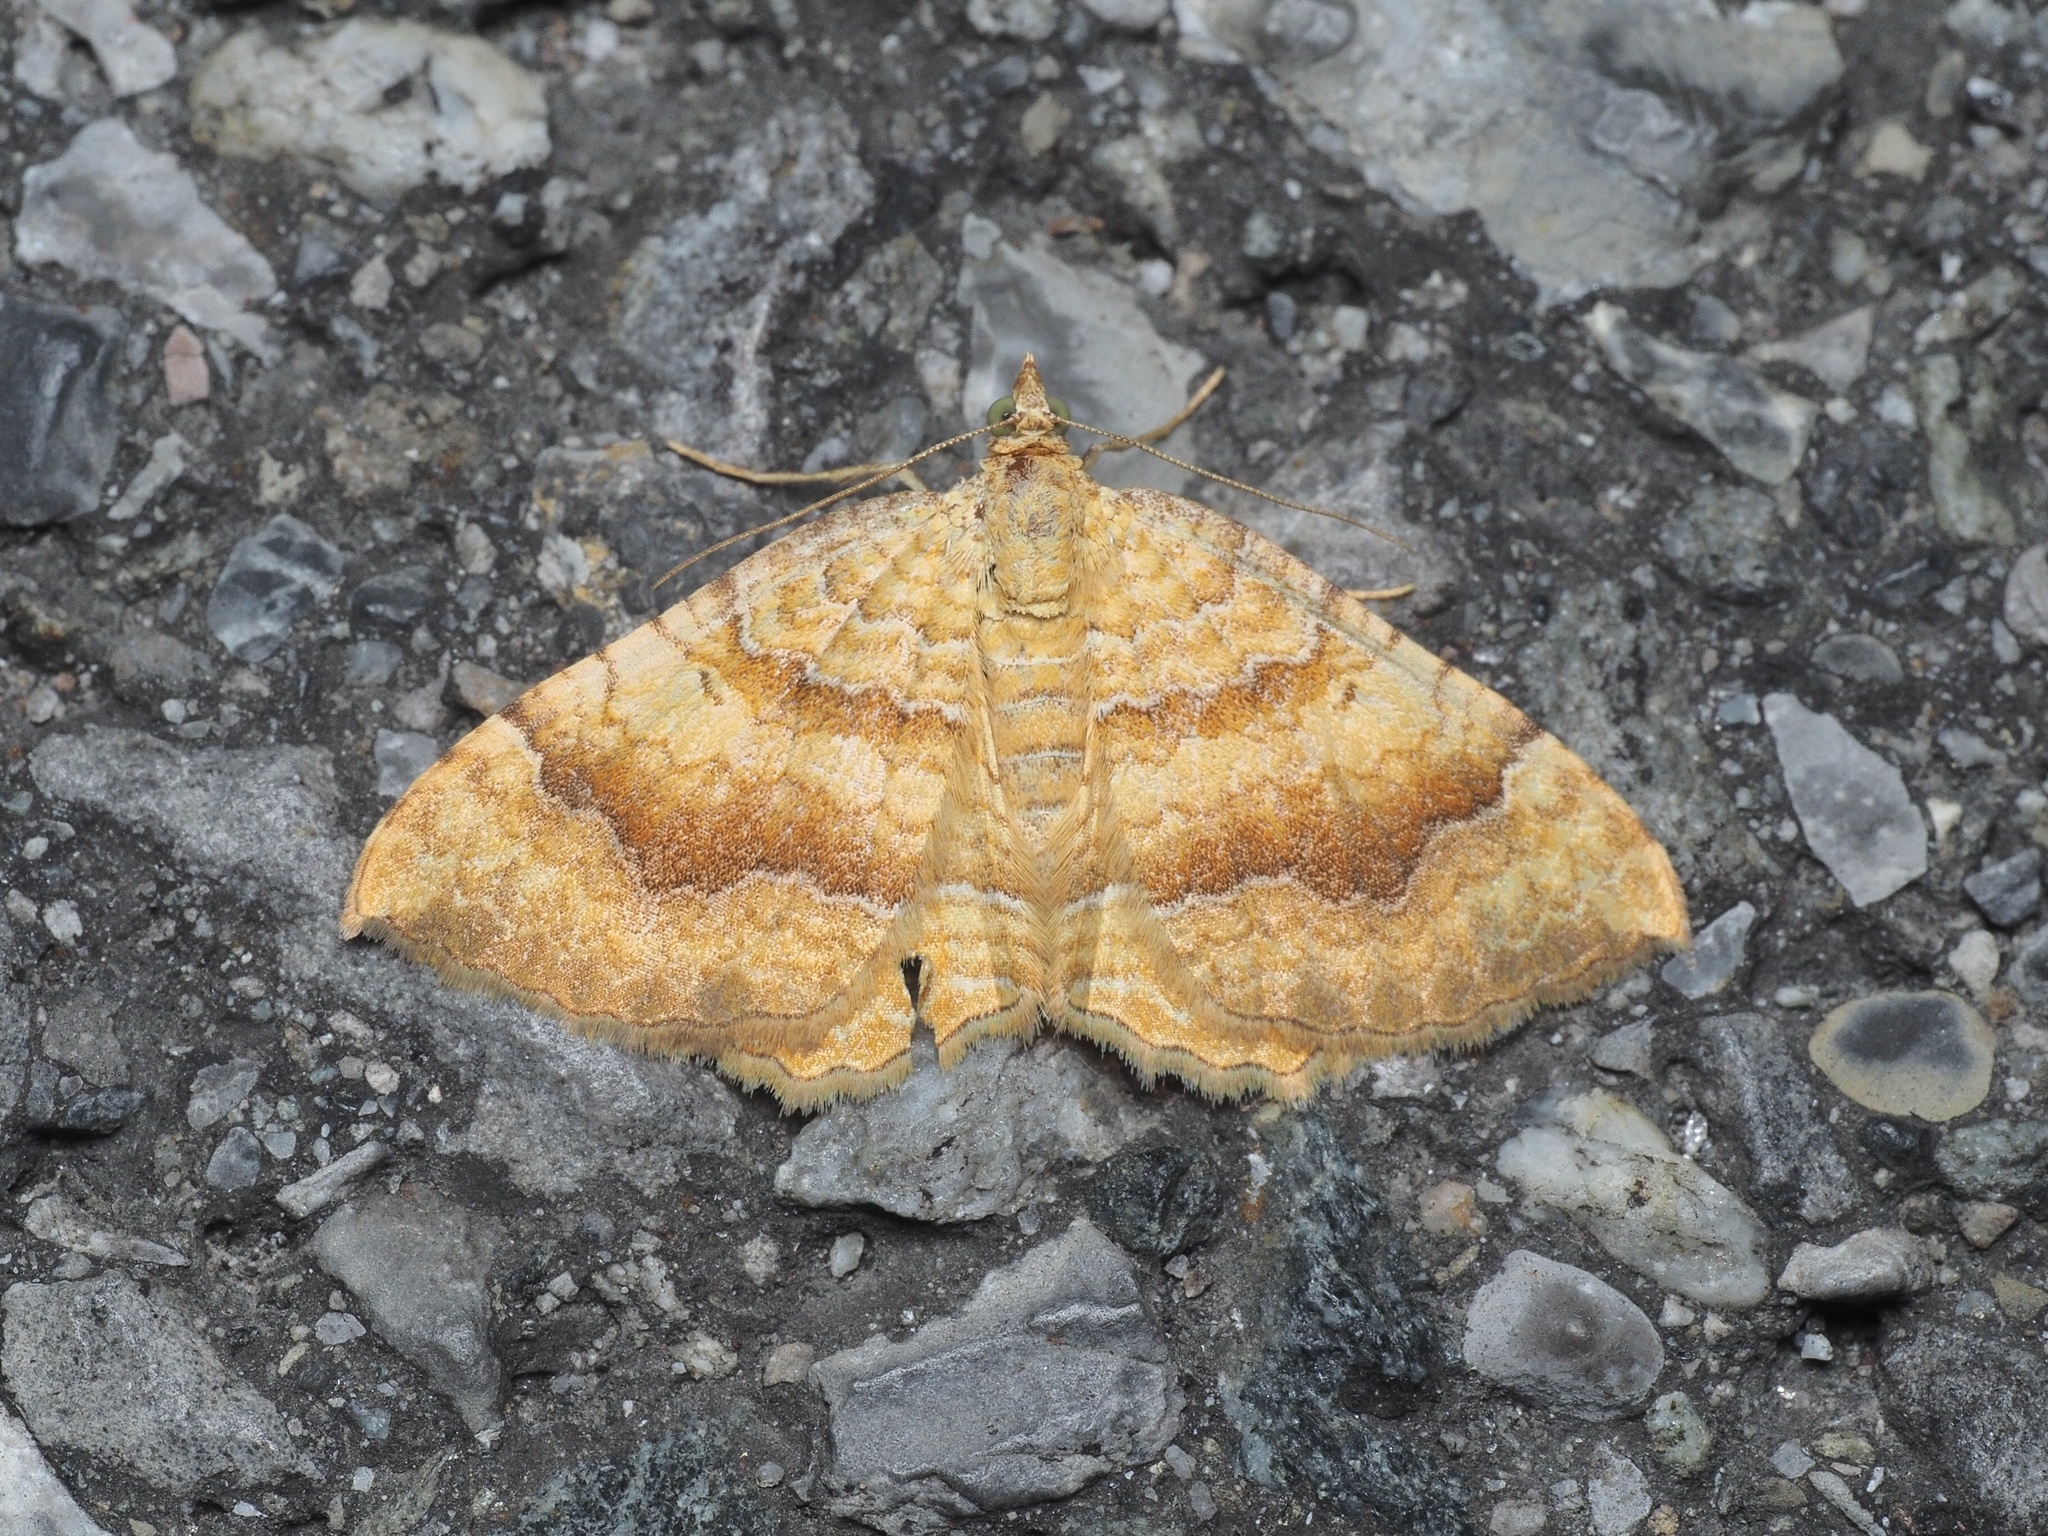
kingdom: Animalia
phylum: Arthropoda
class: Insecta
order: Lepidoptera
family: Geometridae
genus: Camptogramma
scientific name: Camptogramma bilineata
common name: Yellow shell
